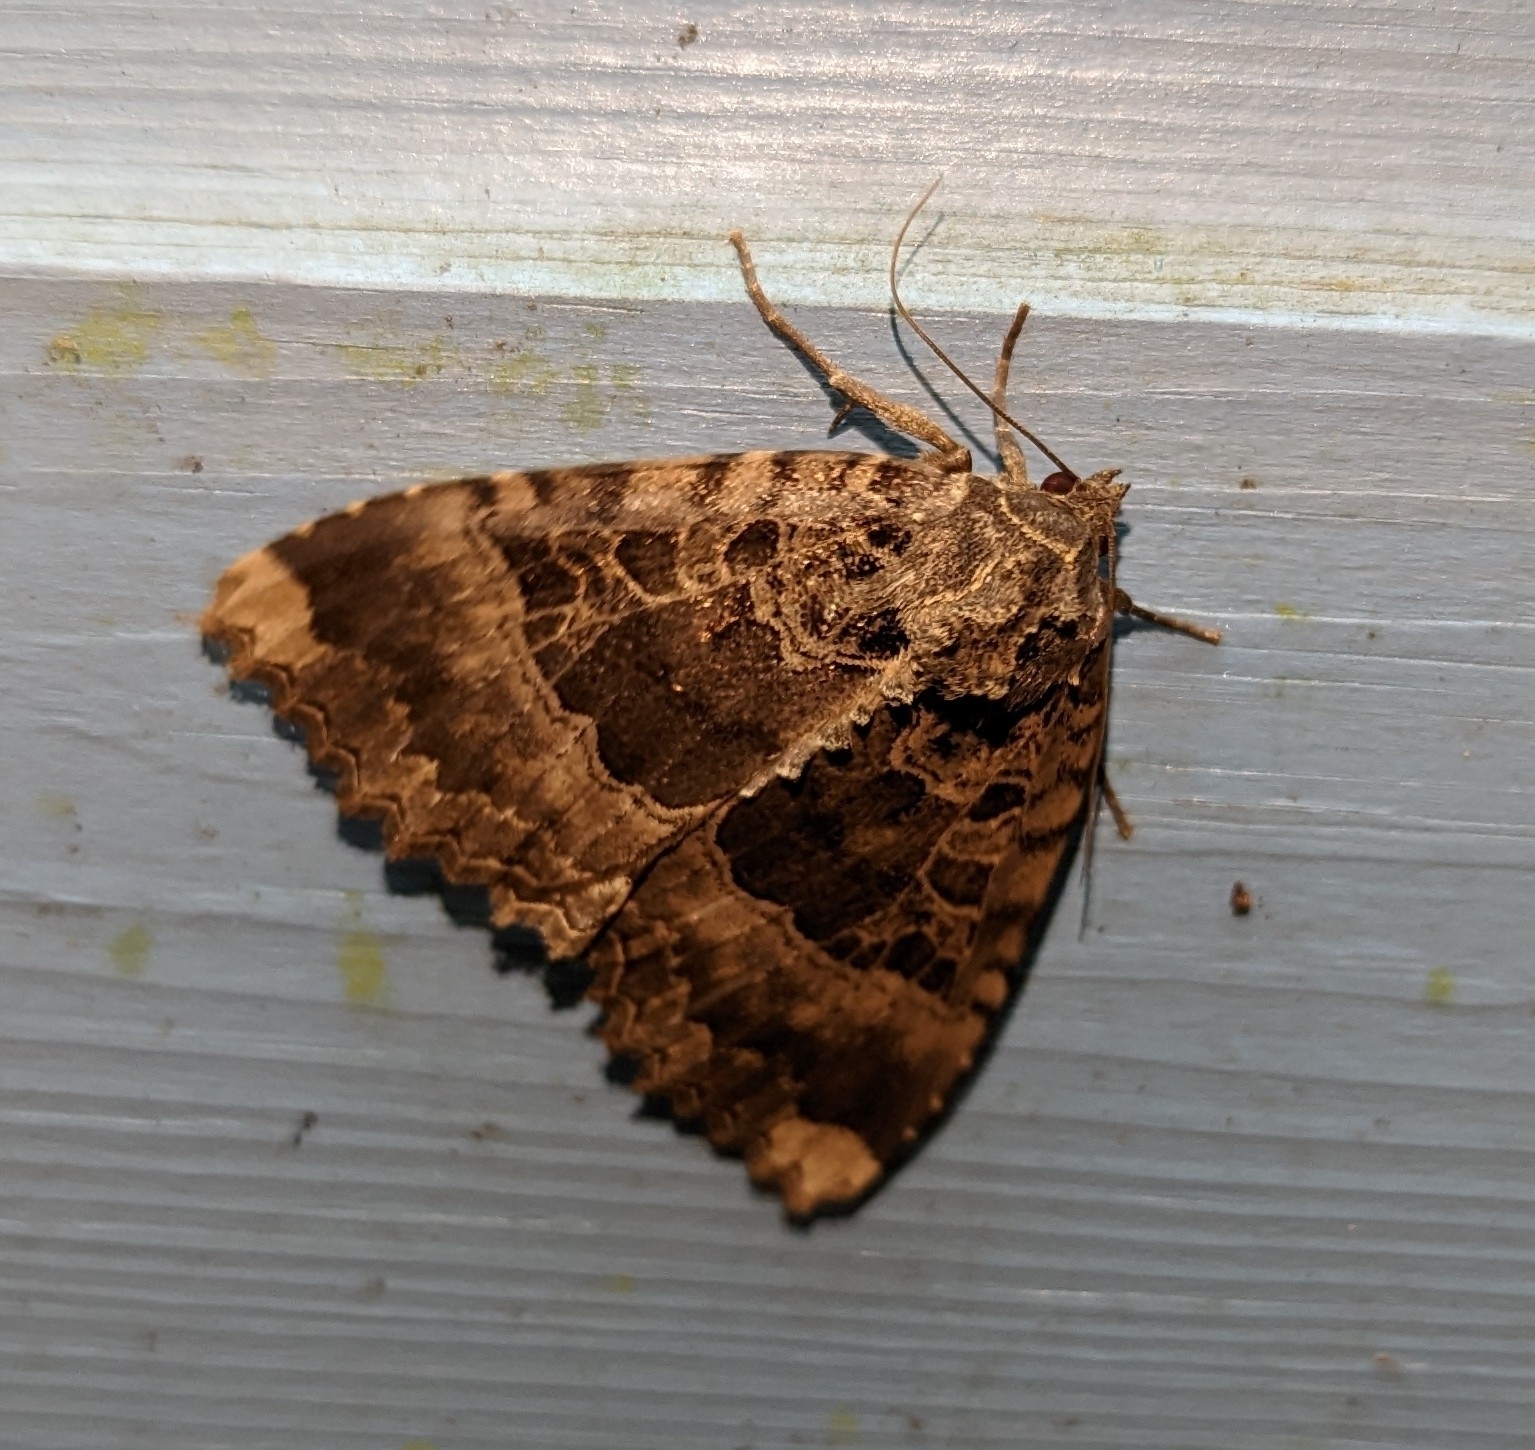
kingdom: Animalia
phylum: Arthropoda
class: Insecta
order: Lepidoptera
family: Noctuidae
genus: Mormo
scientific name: Mormo maura
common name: Old lady
